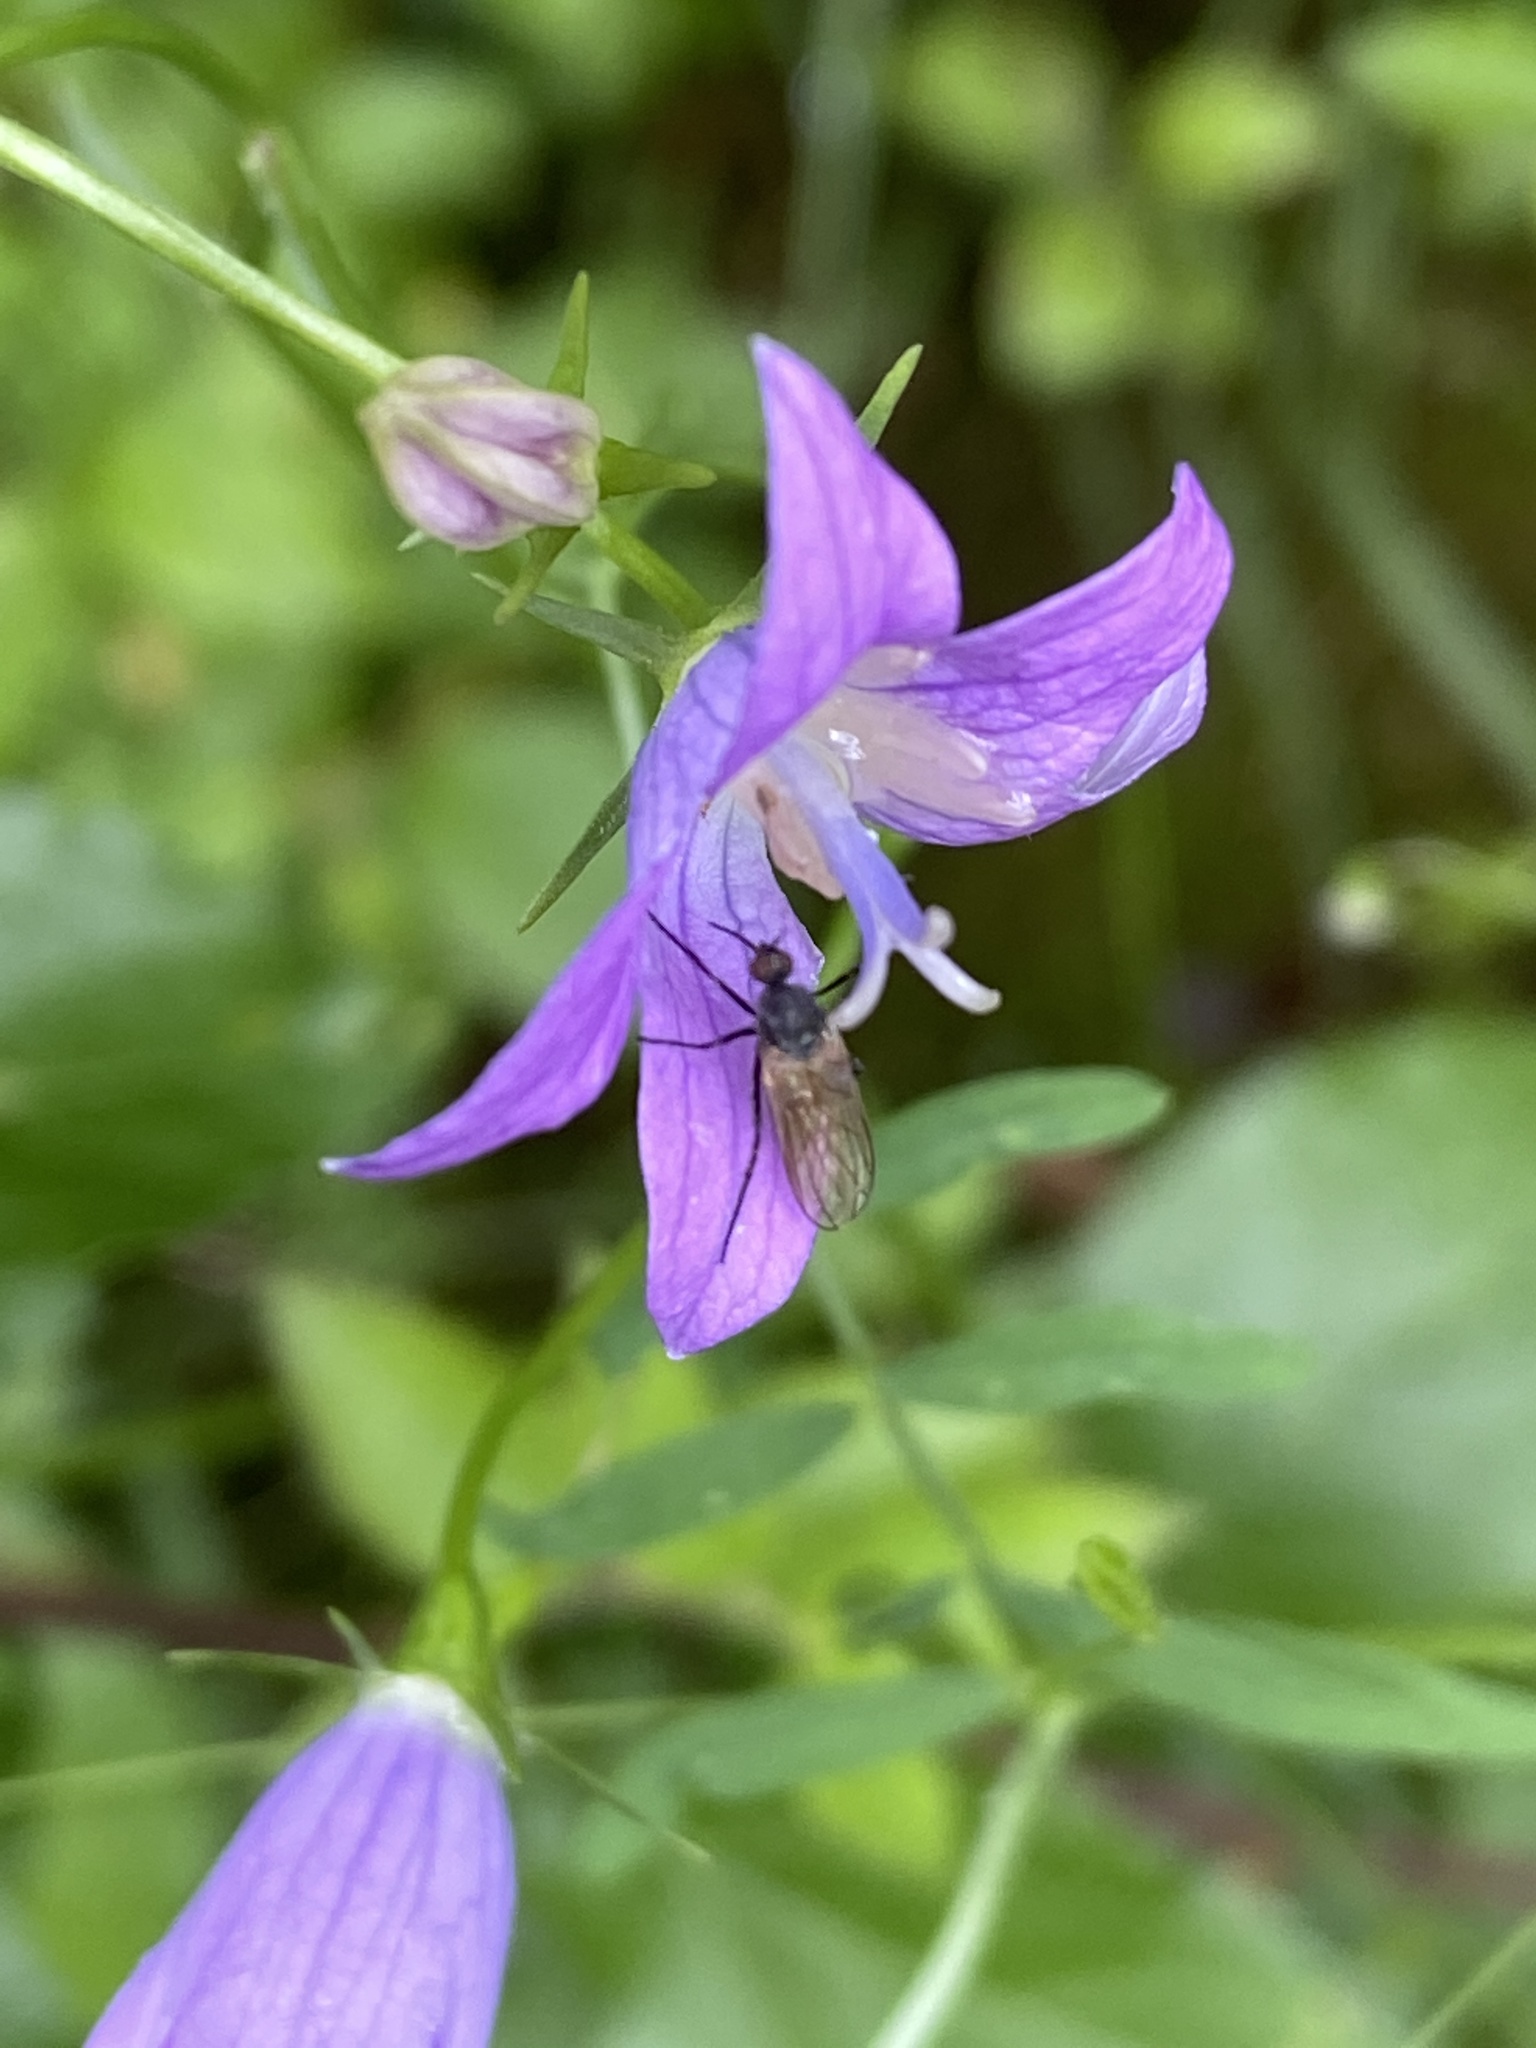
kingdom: Plantae
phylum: Tracheophyta
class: Magnoliopsida
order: Asterales
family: Campanulaceae
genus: Campanula
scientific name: Campanula patula
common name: Spreading bellflower
